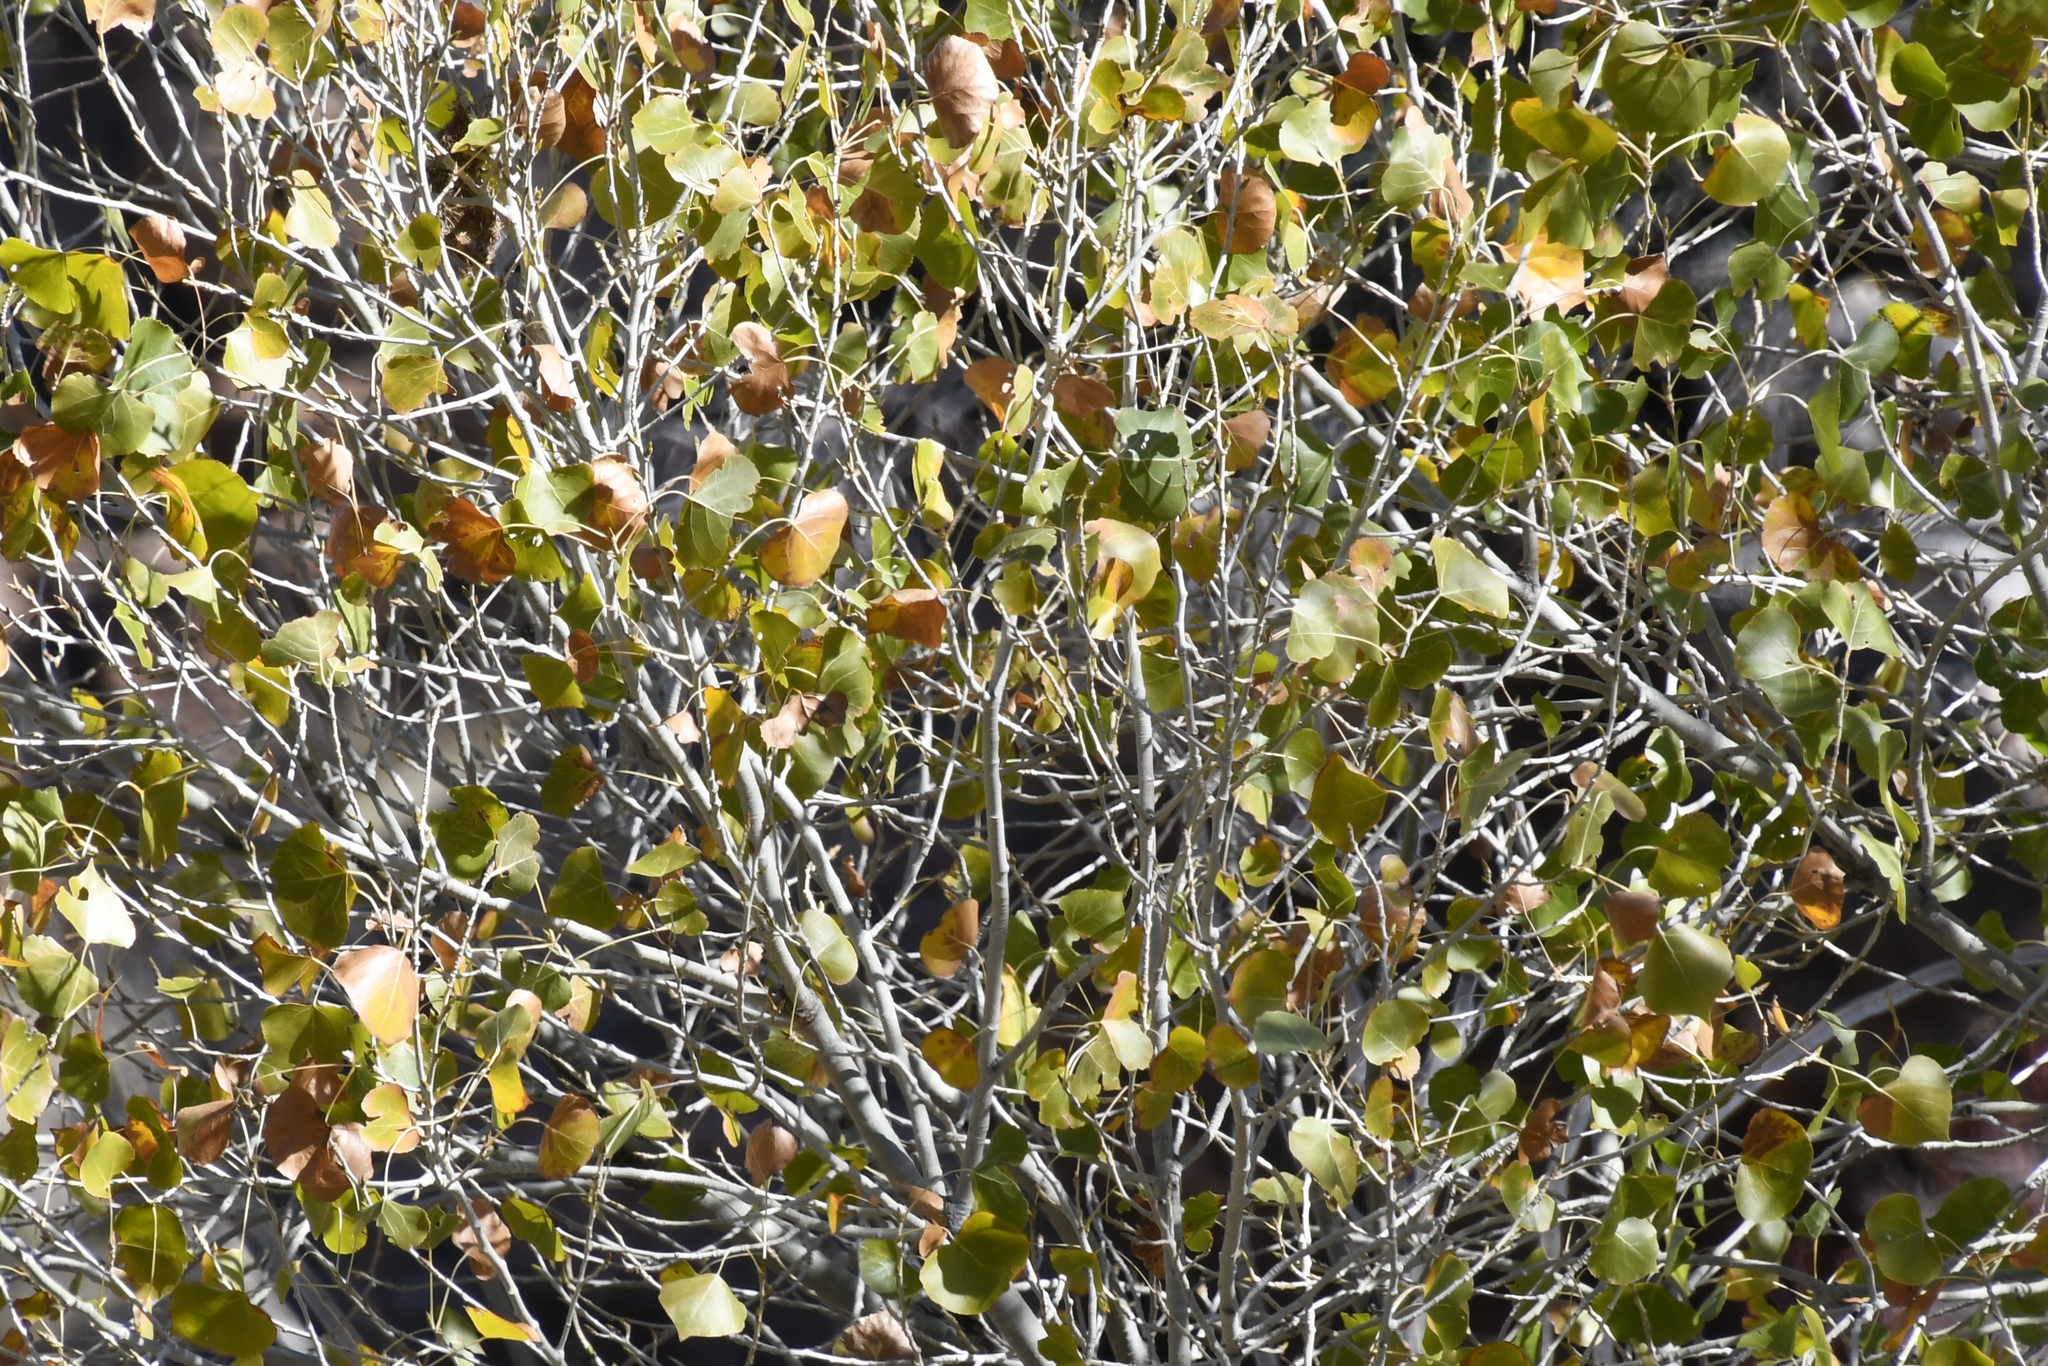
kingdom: Plantae
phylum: Tracheophyta
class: Magnoliopsida
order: Malpighiales
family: Salicaceae
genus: Populus
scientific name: Populus fremontii
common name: Fremont's cottonwood
